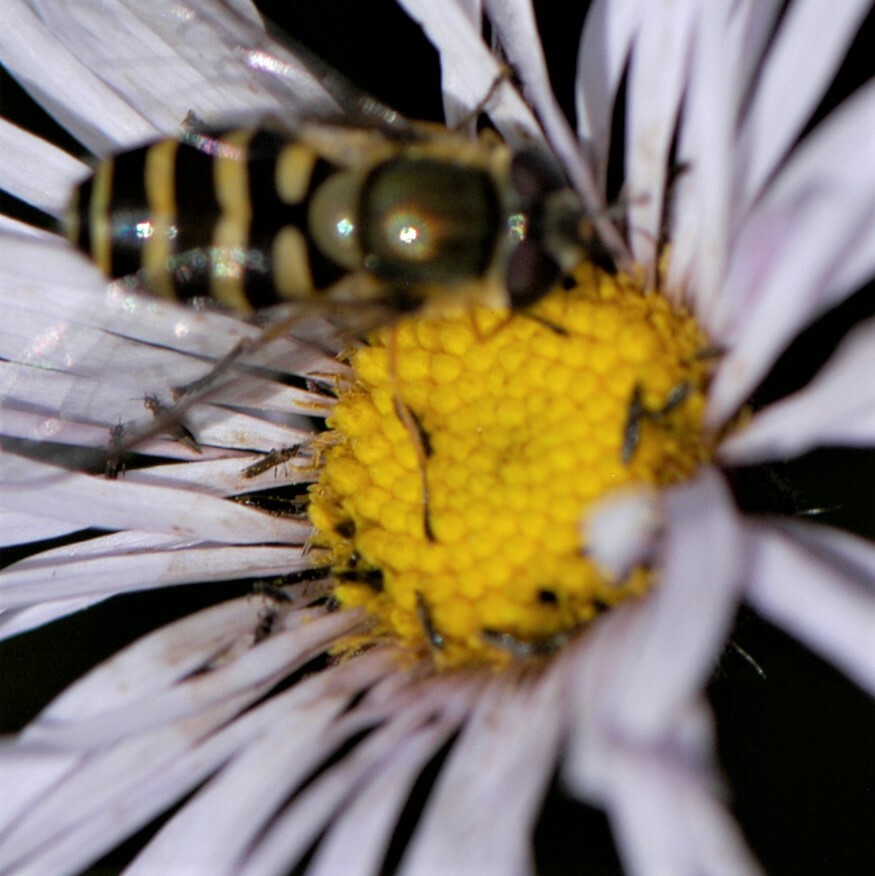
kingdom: Animalia
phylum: Arthropoda
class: Insecta
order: Diptera
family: Syrphidae
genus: Syrphus
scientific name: Syrphus
